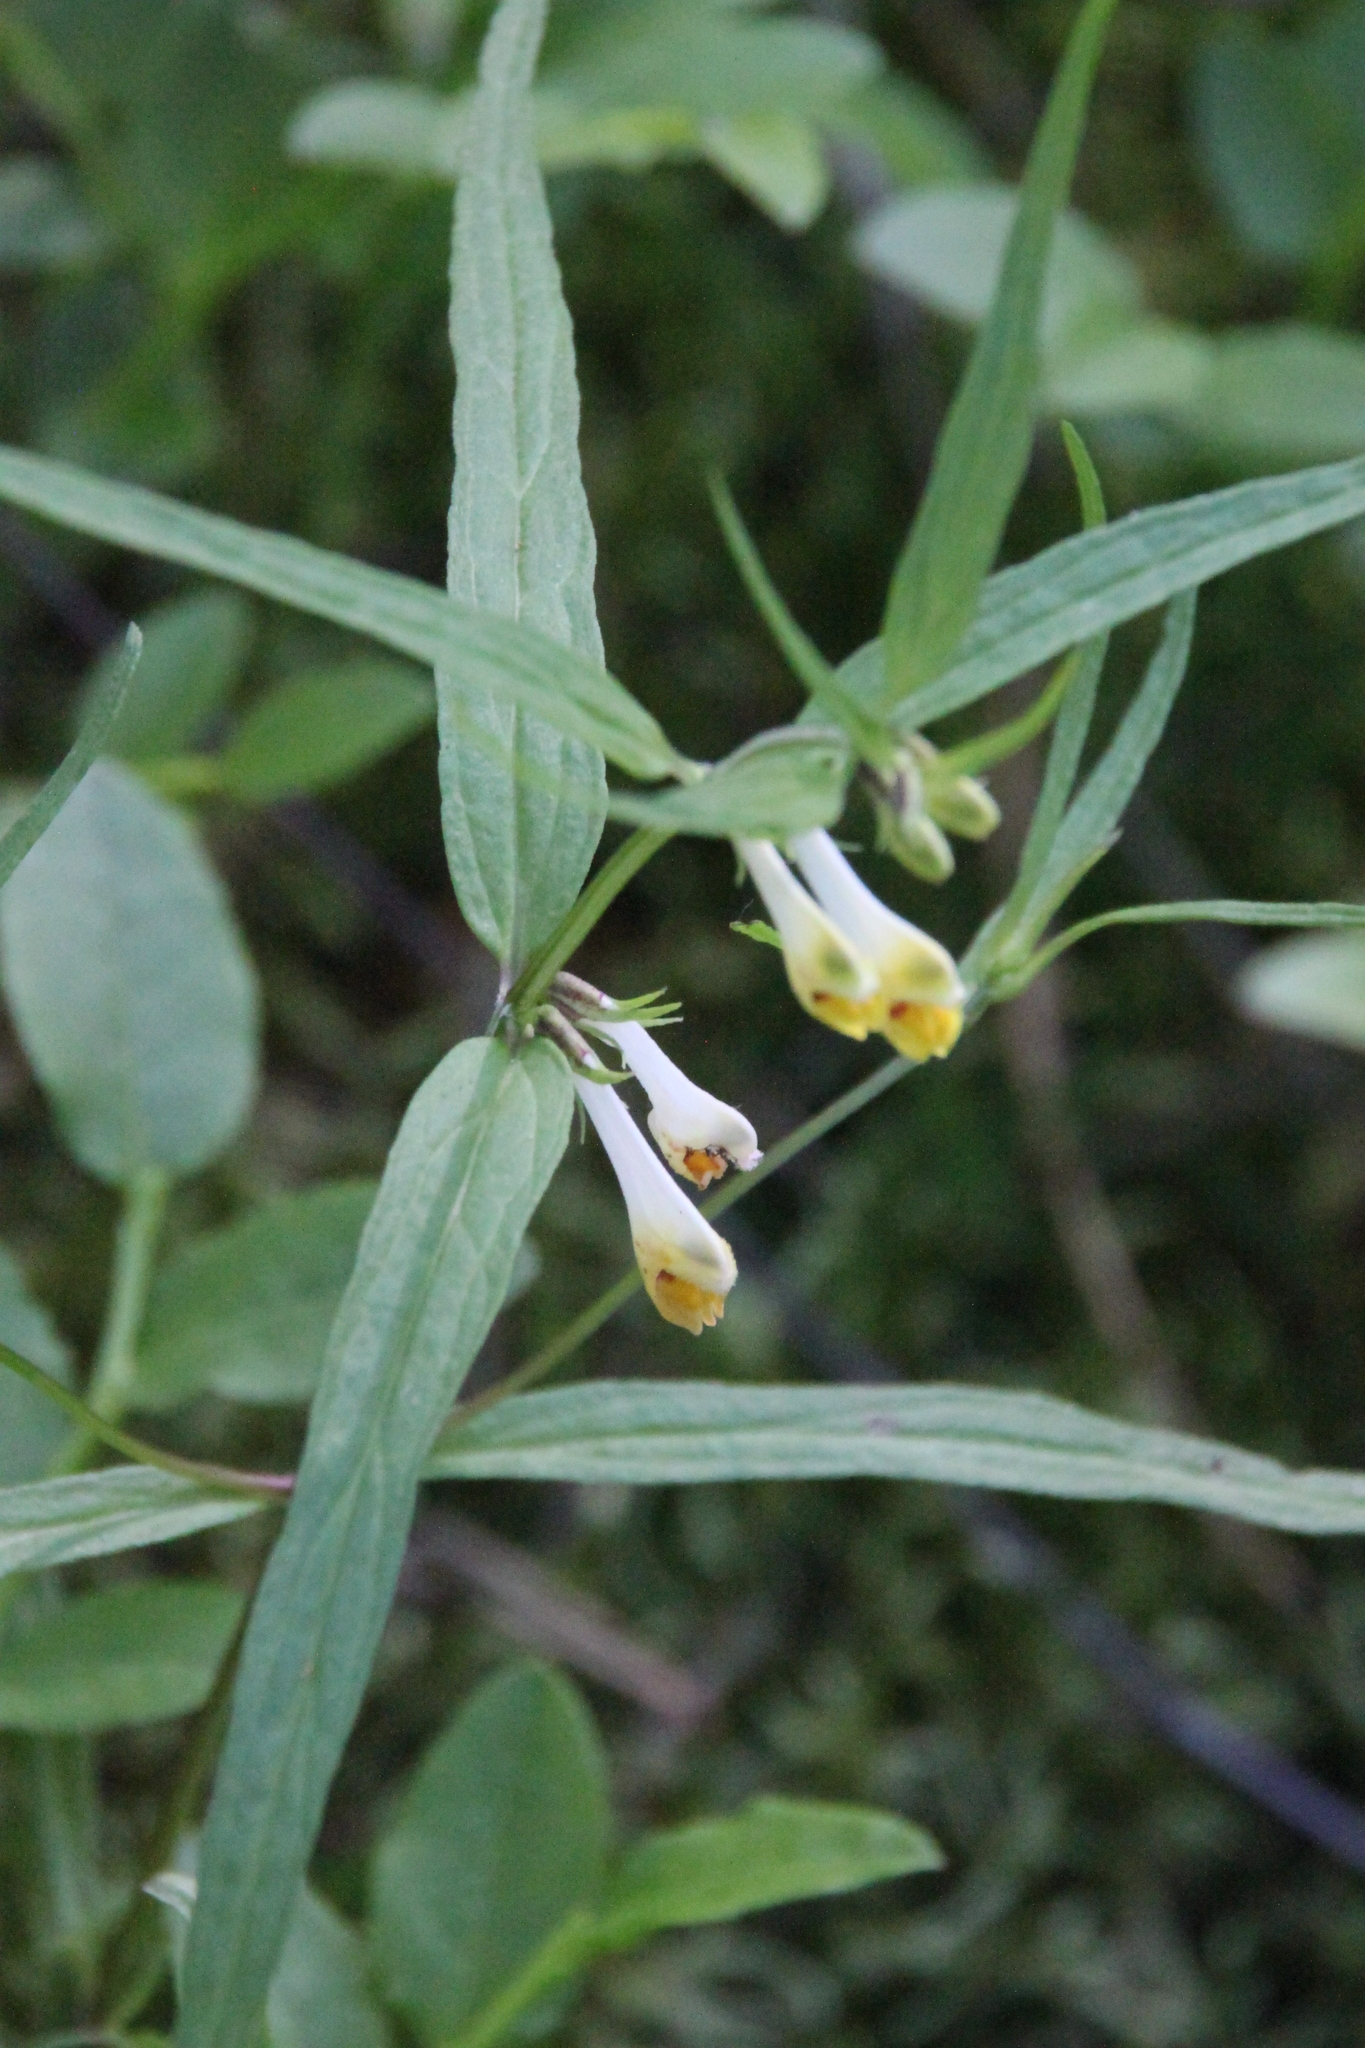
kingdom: Plantae
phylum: Tracheophyta
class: Magnoliopsida
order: Lamiales
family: Orobanchaceae
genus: Melampyrum
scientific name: Melampyrum pratense
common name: Common cow-wheat
